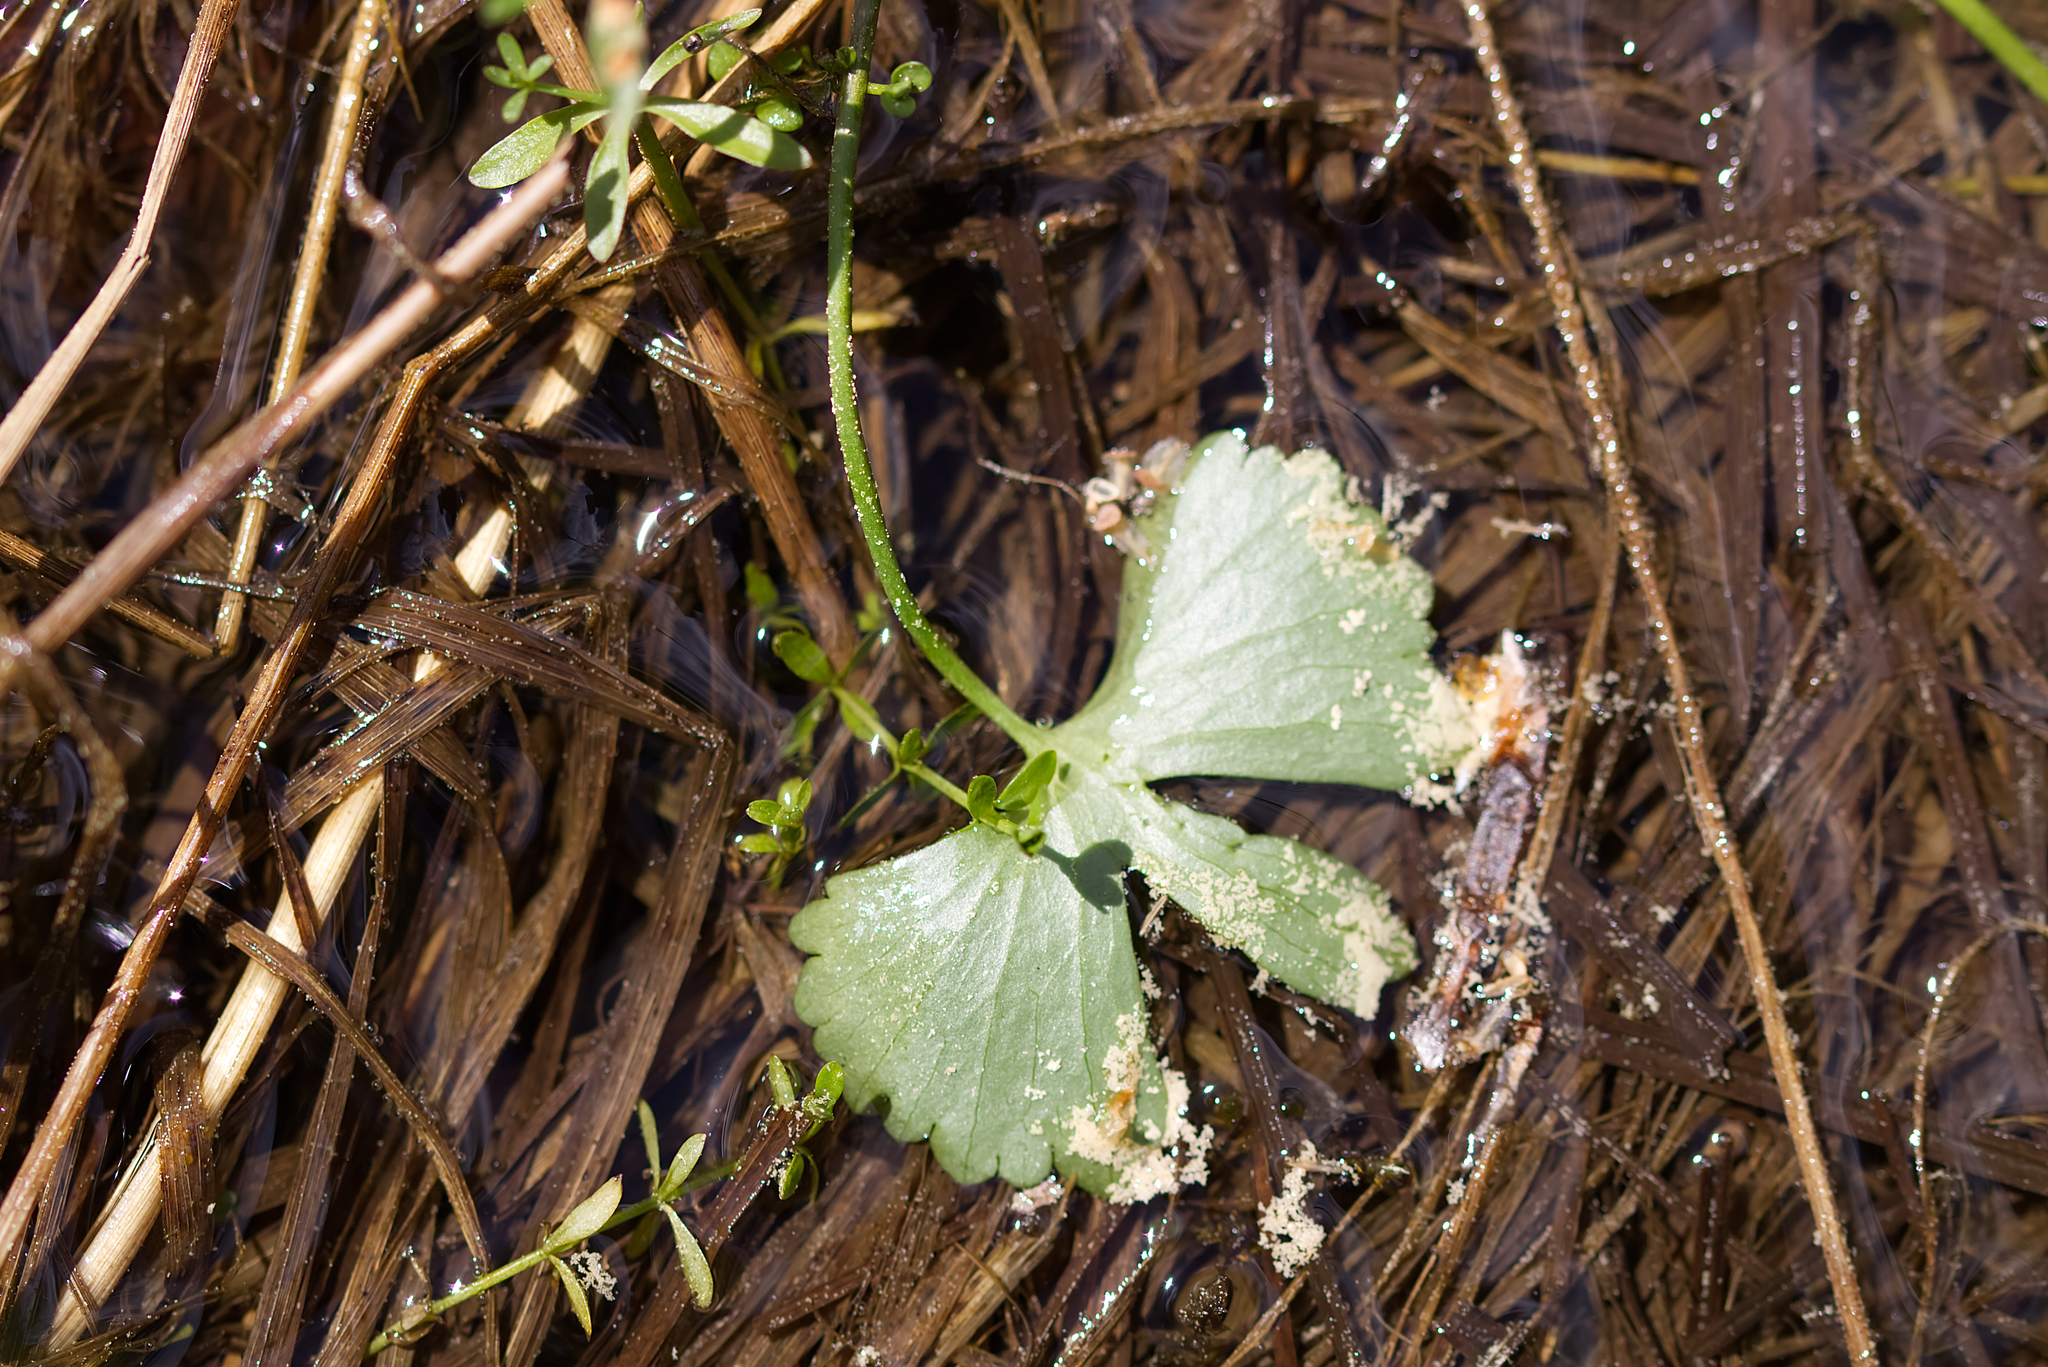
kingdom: Plantae
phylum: Tracheophyta
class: Magnoliopsida
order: Ranunculales
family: Ranunculaceae
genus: Ranunculus
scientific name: Ranunculus auricomus
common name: Goldilocks buttercup
